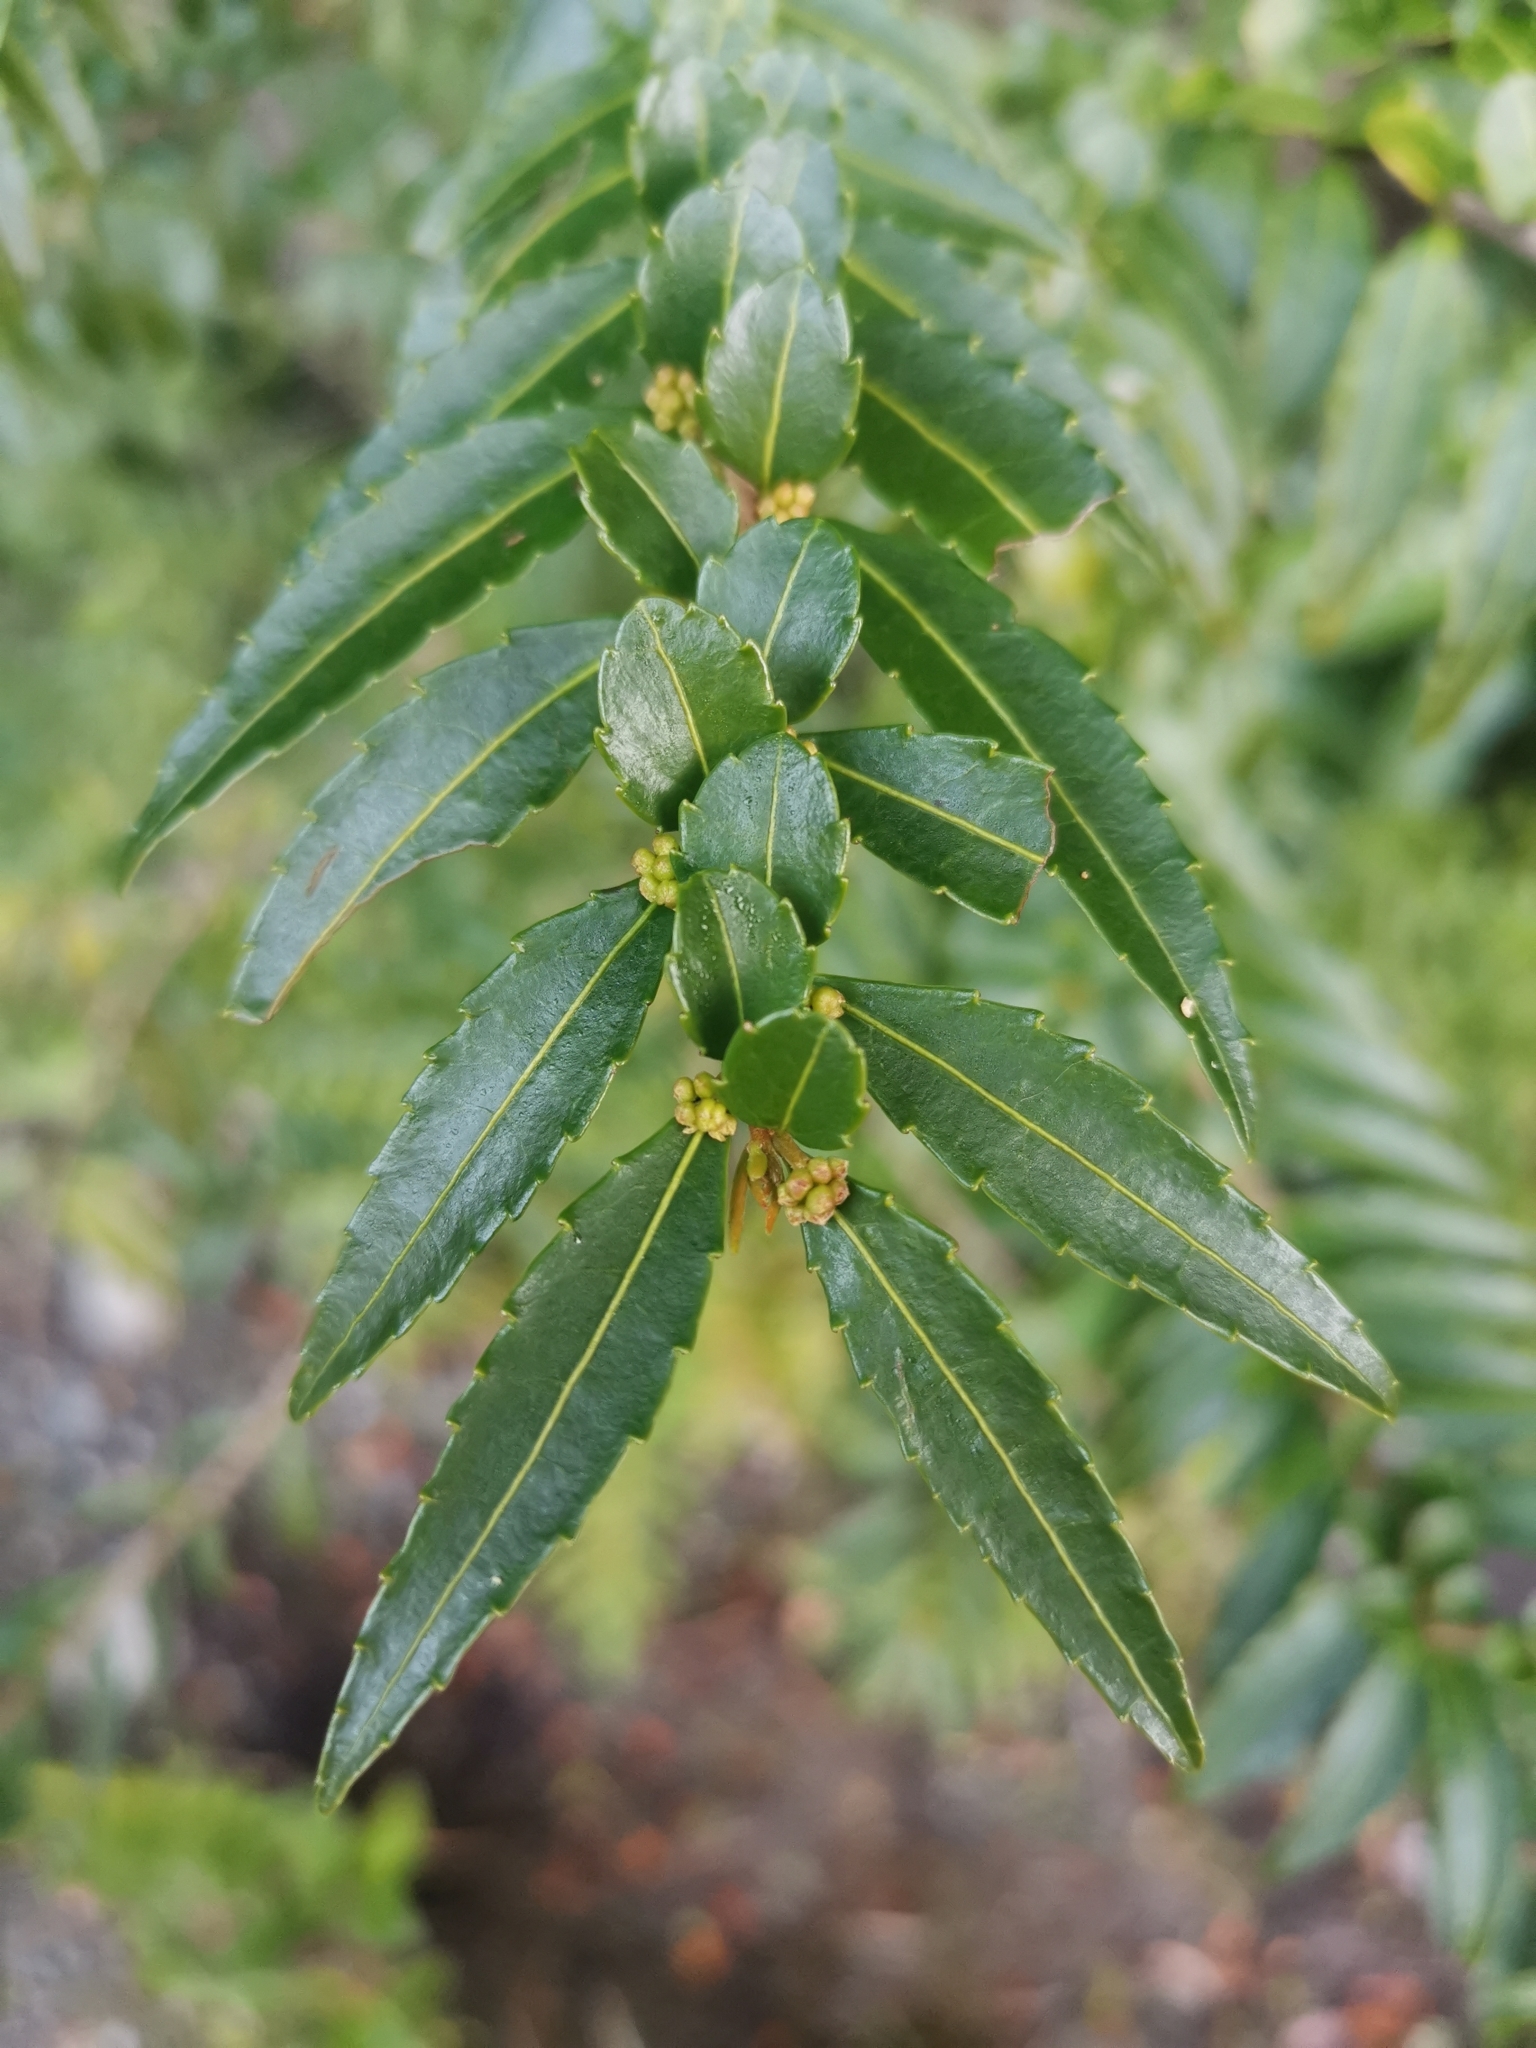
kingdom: Plantae
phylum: Tracheophyta
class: Magnoliopsida
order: Malpighiales
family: Salicaceae
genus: Azara
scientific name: Azara lanceolata
